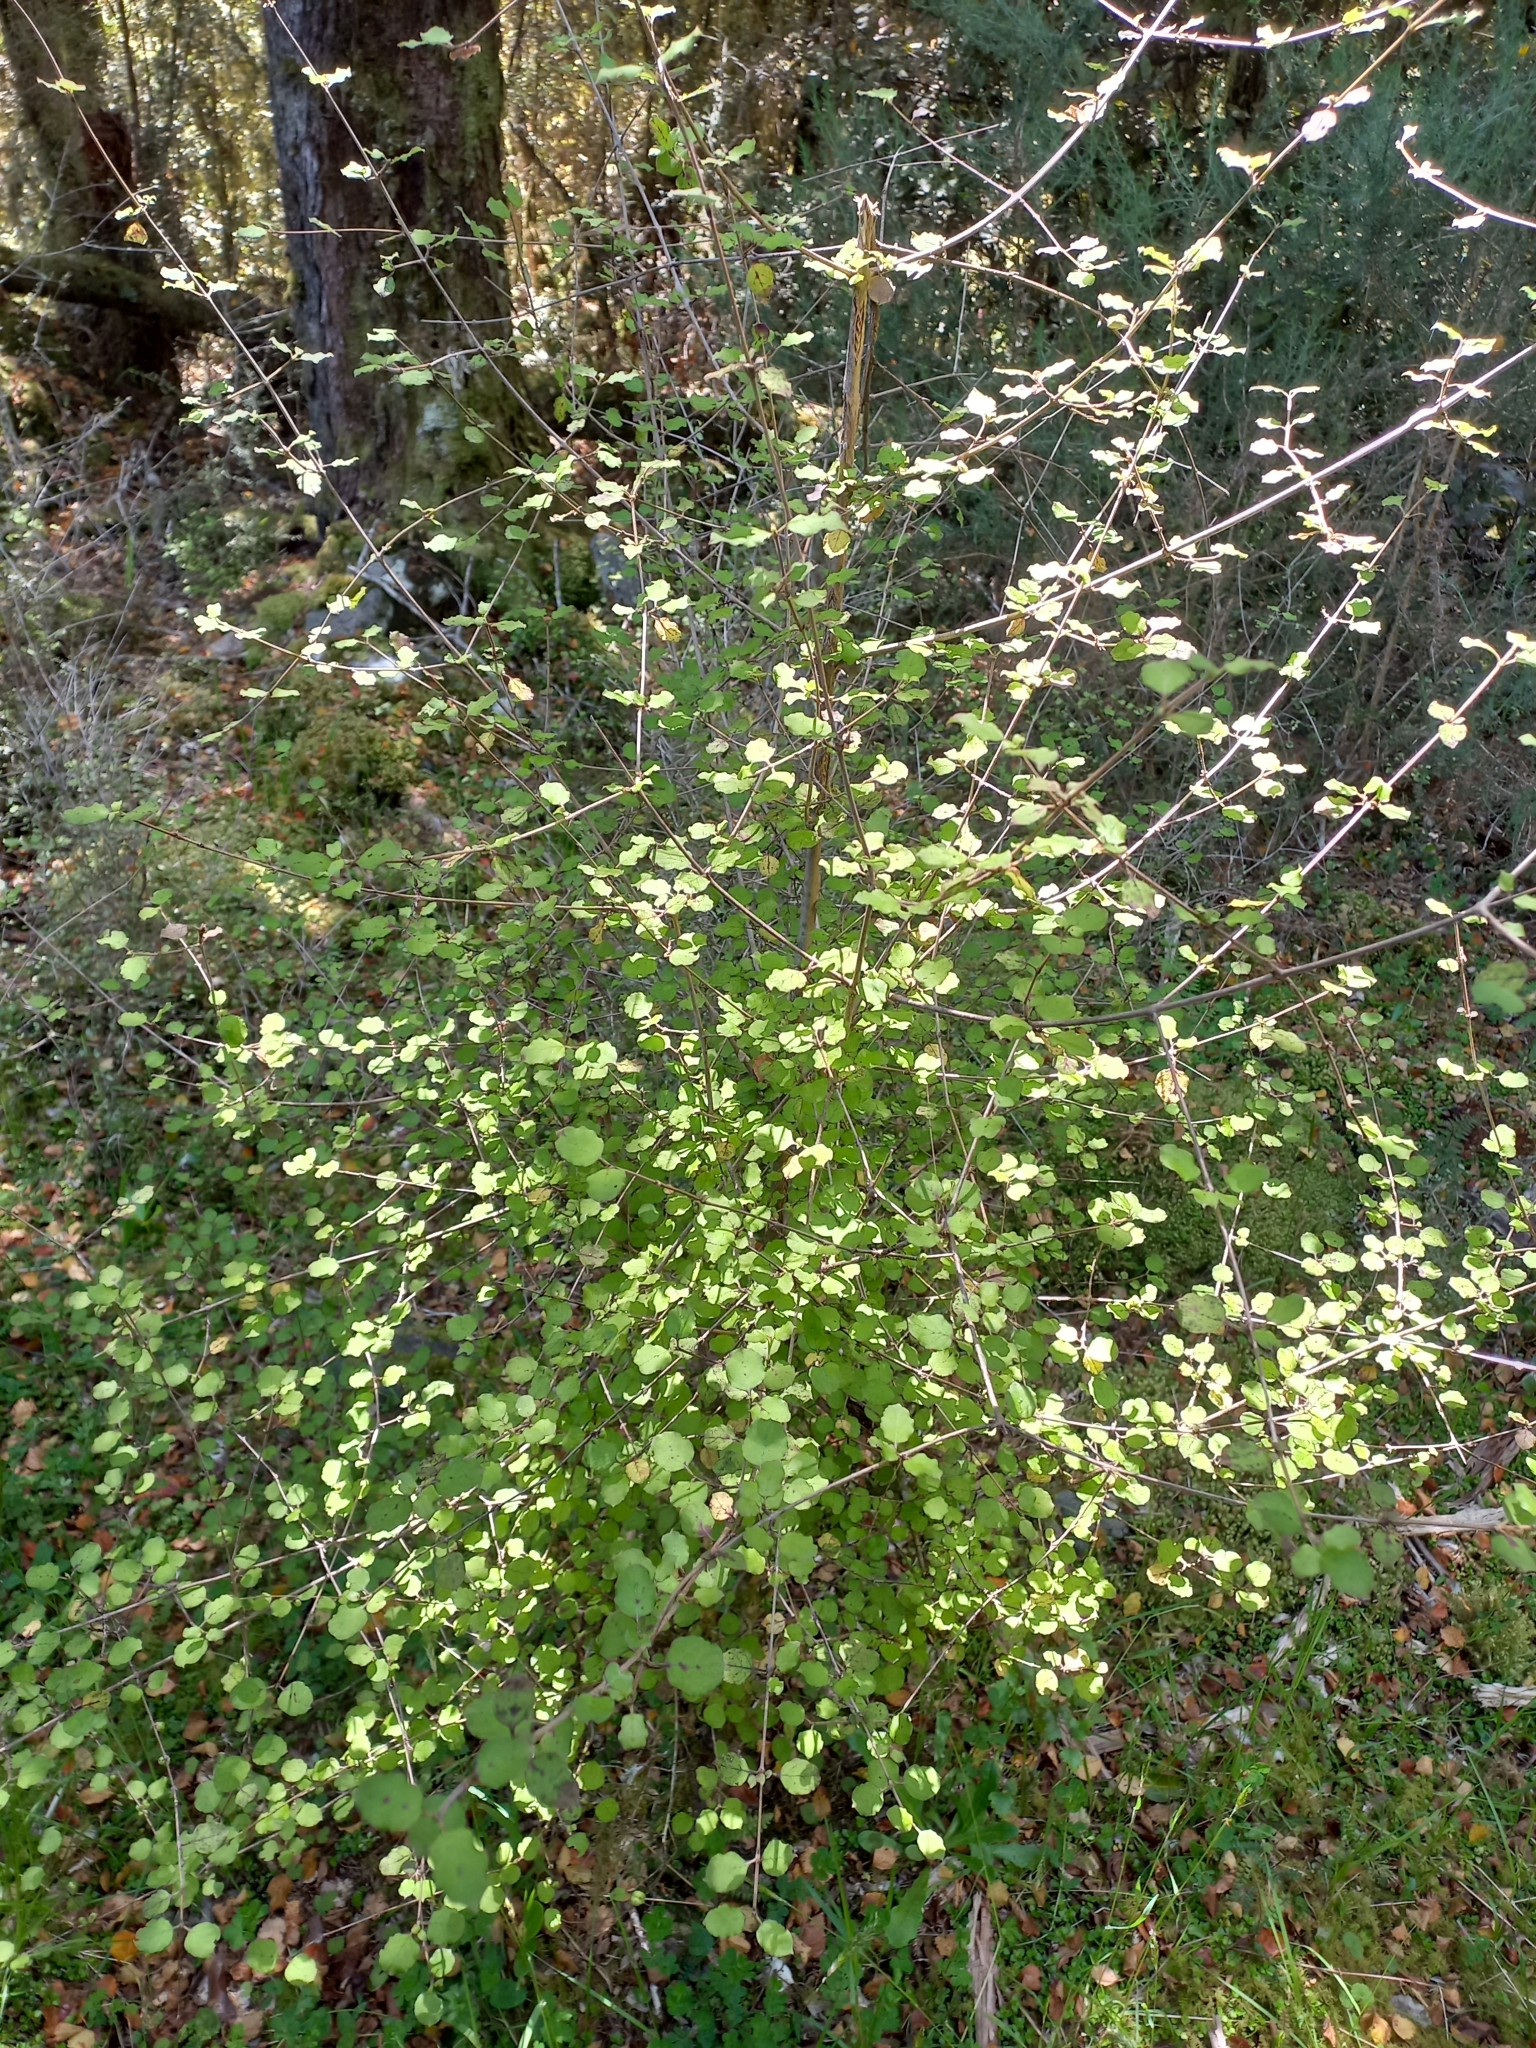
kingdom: Plantae
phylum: Tracheophyta
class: Magnoliopsida
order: Gentianales
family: Rubiaceae
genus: Coprosma
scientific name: Coprosma rotundifolia
